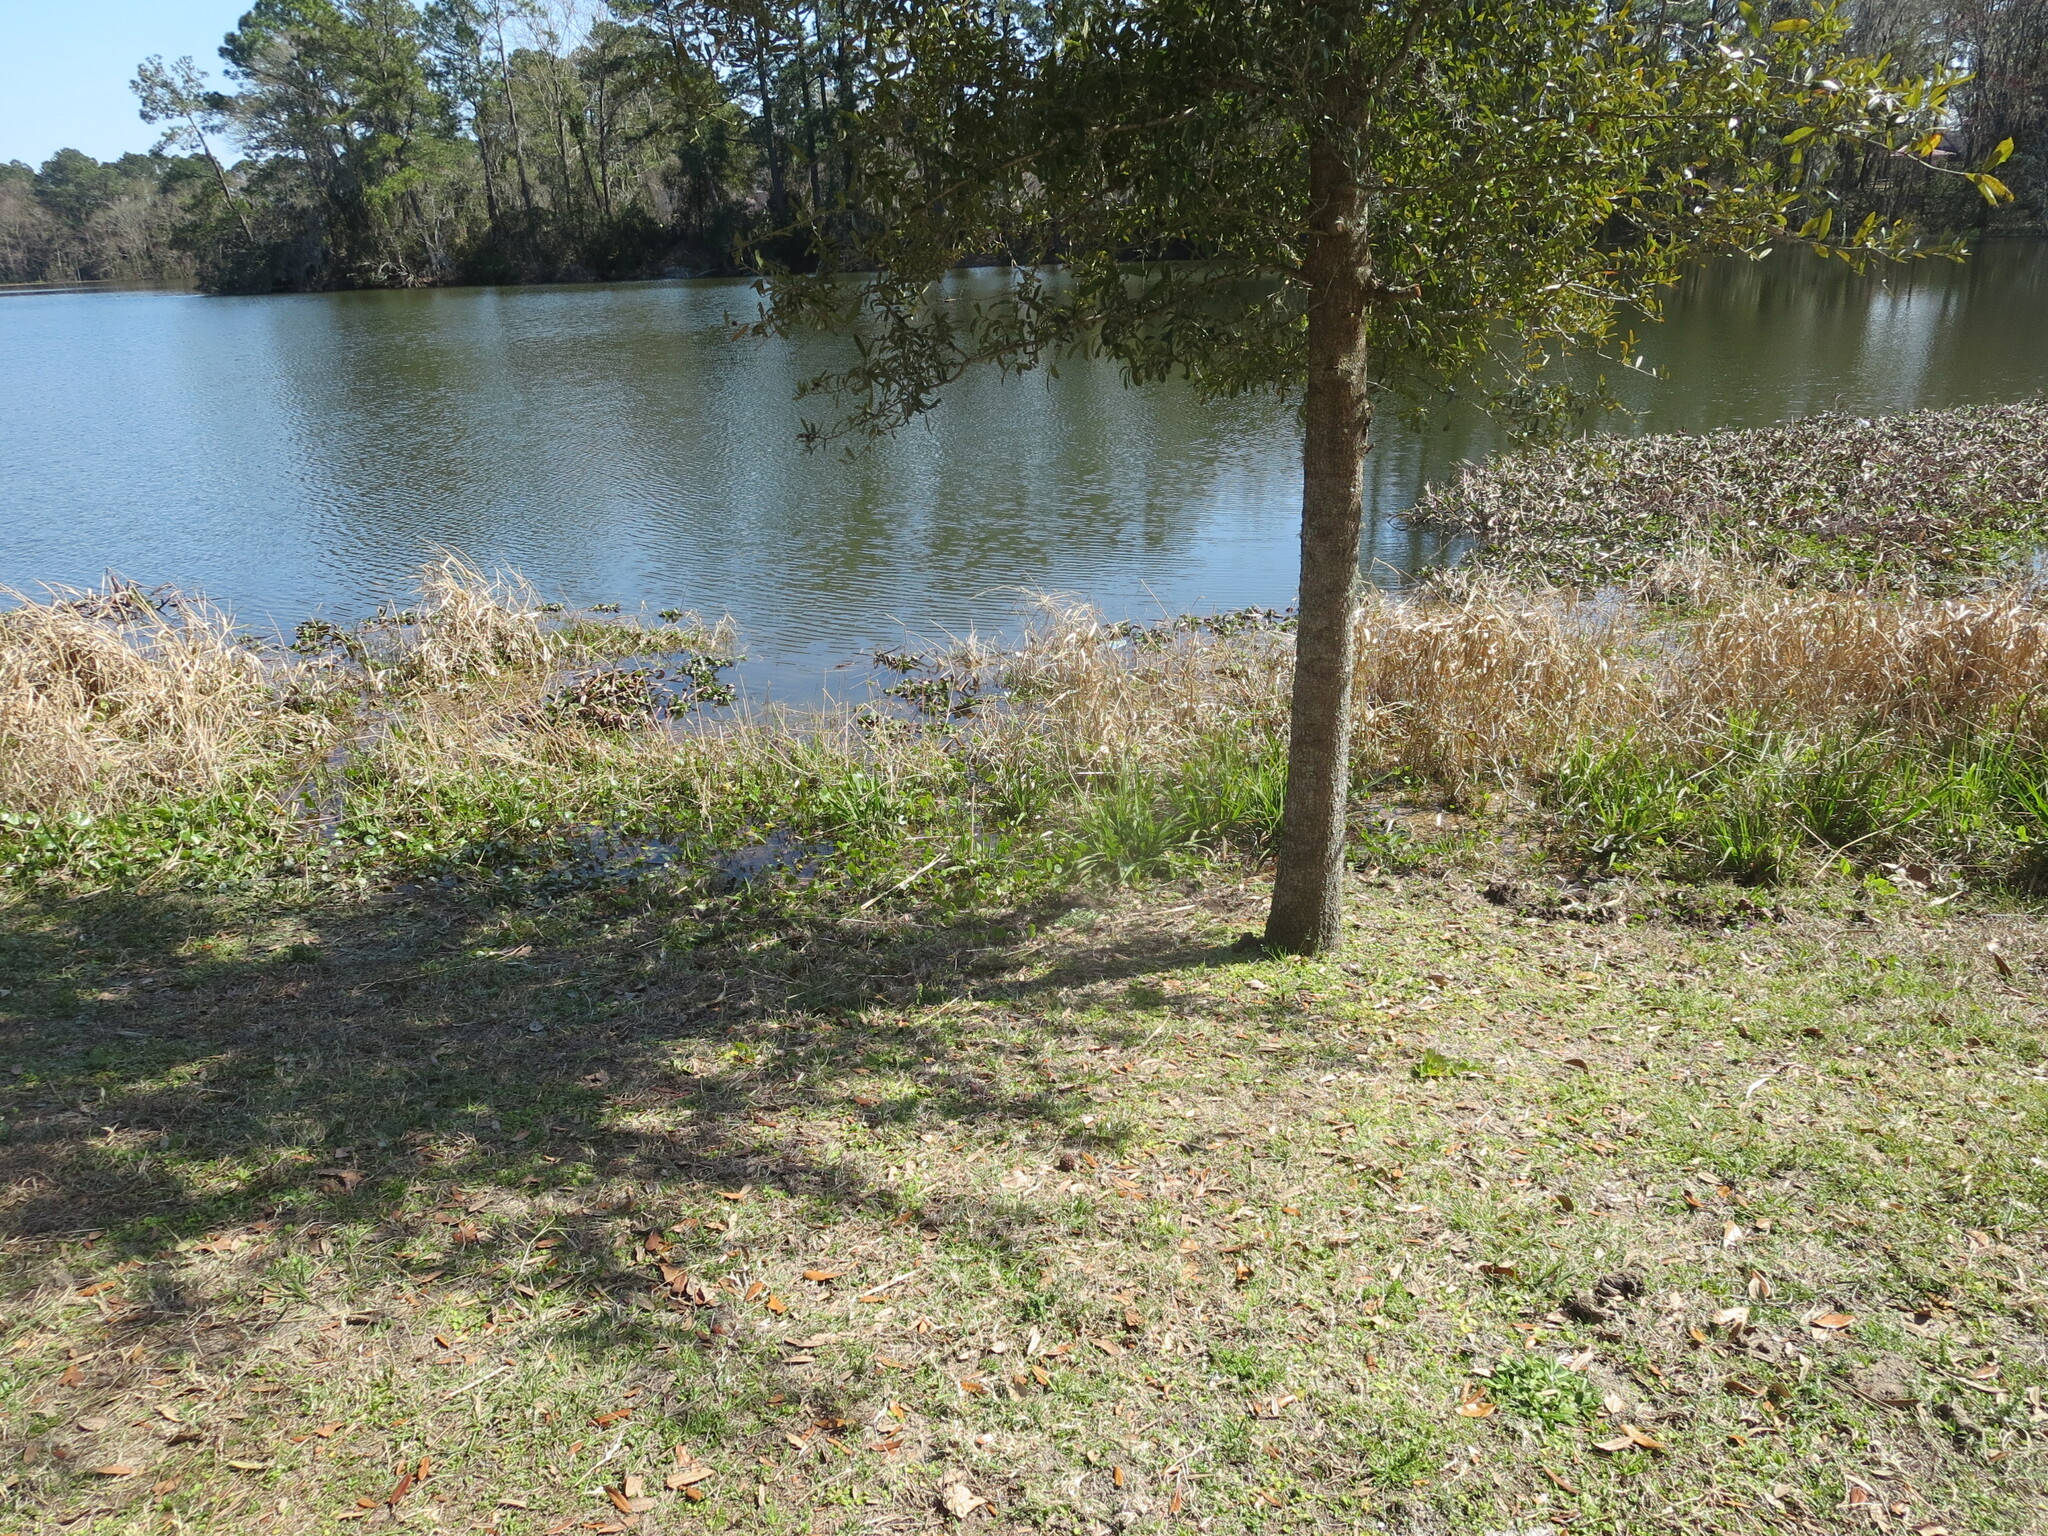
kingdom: Animalia
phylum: Chordata
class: Mammalia
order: Rodentia
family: Castoridae
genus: Castor
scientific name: Castor canadensis
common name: American beaver
